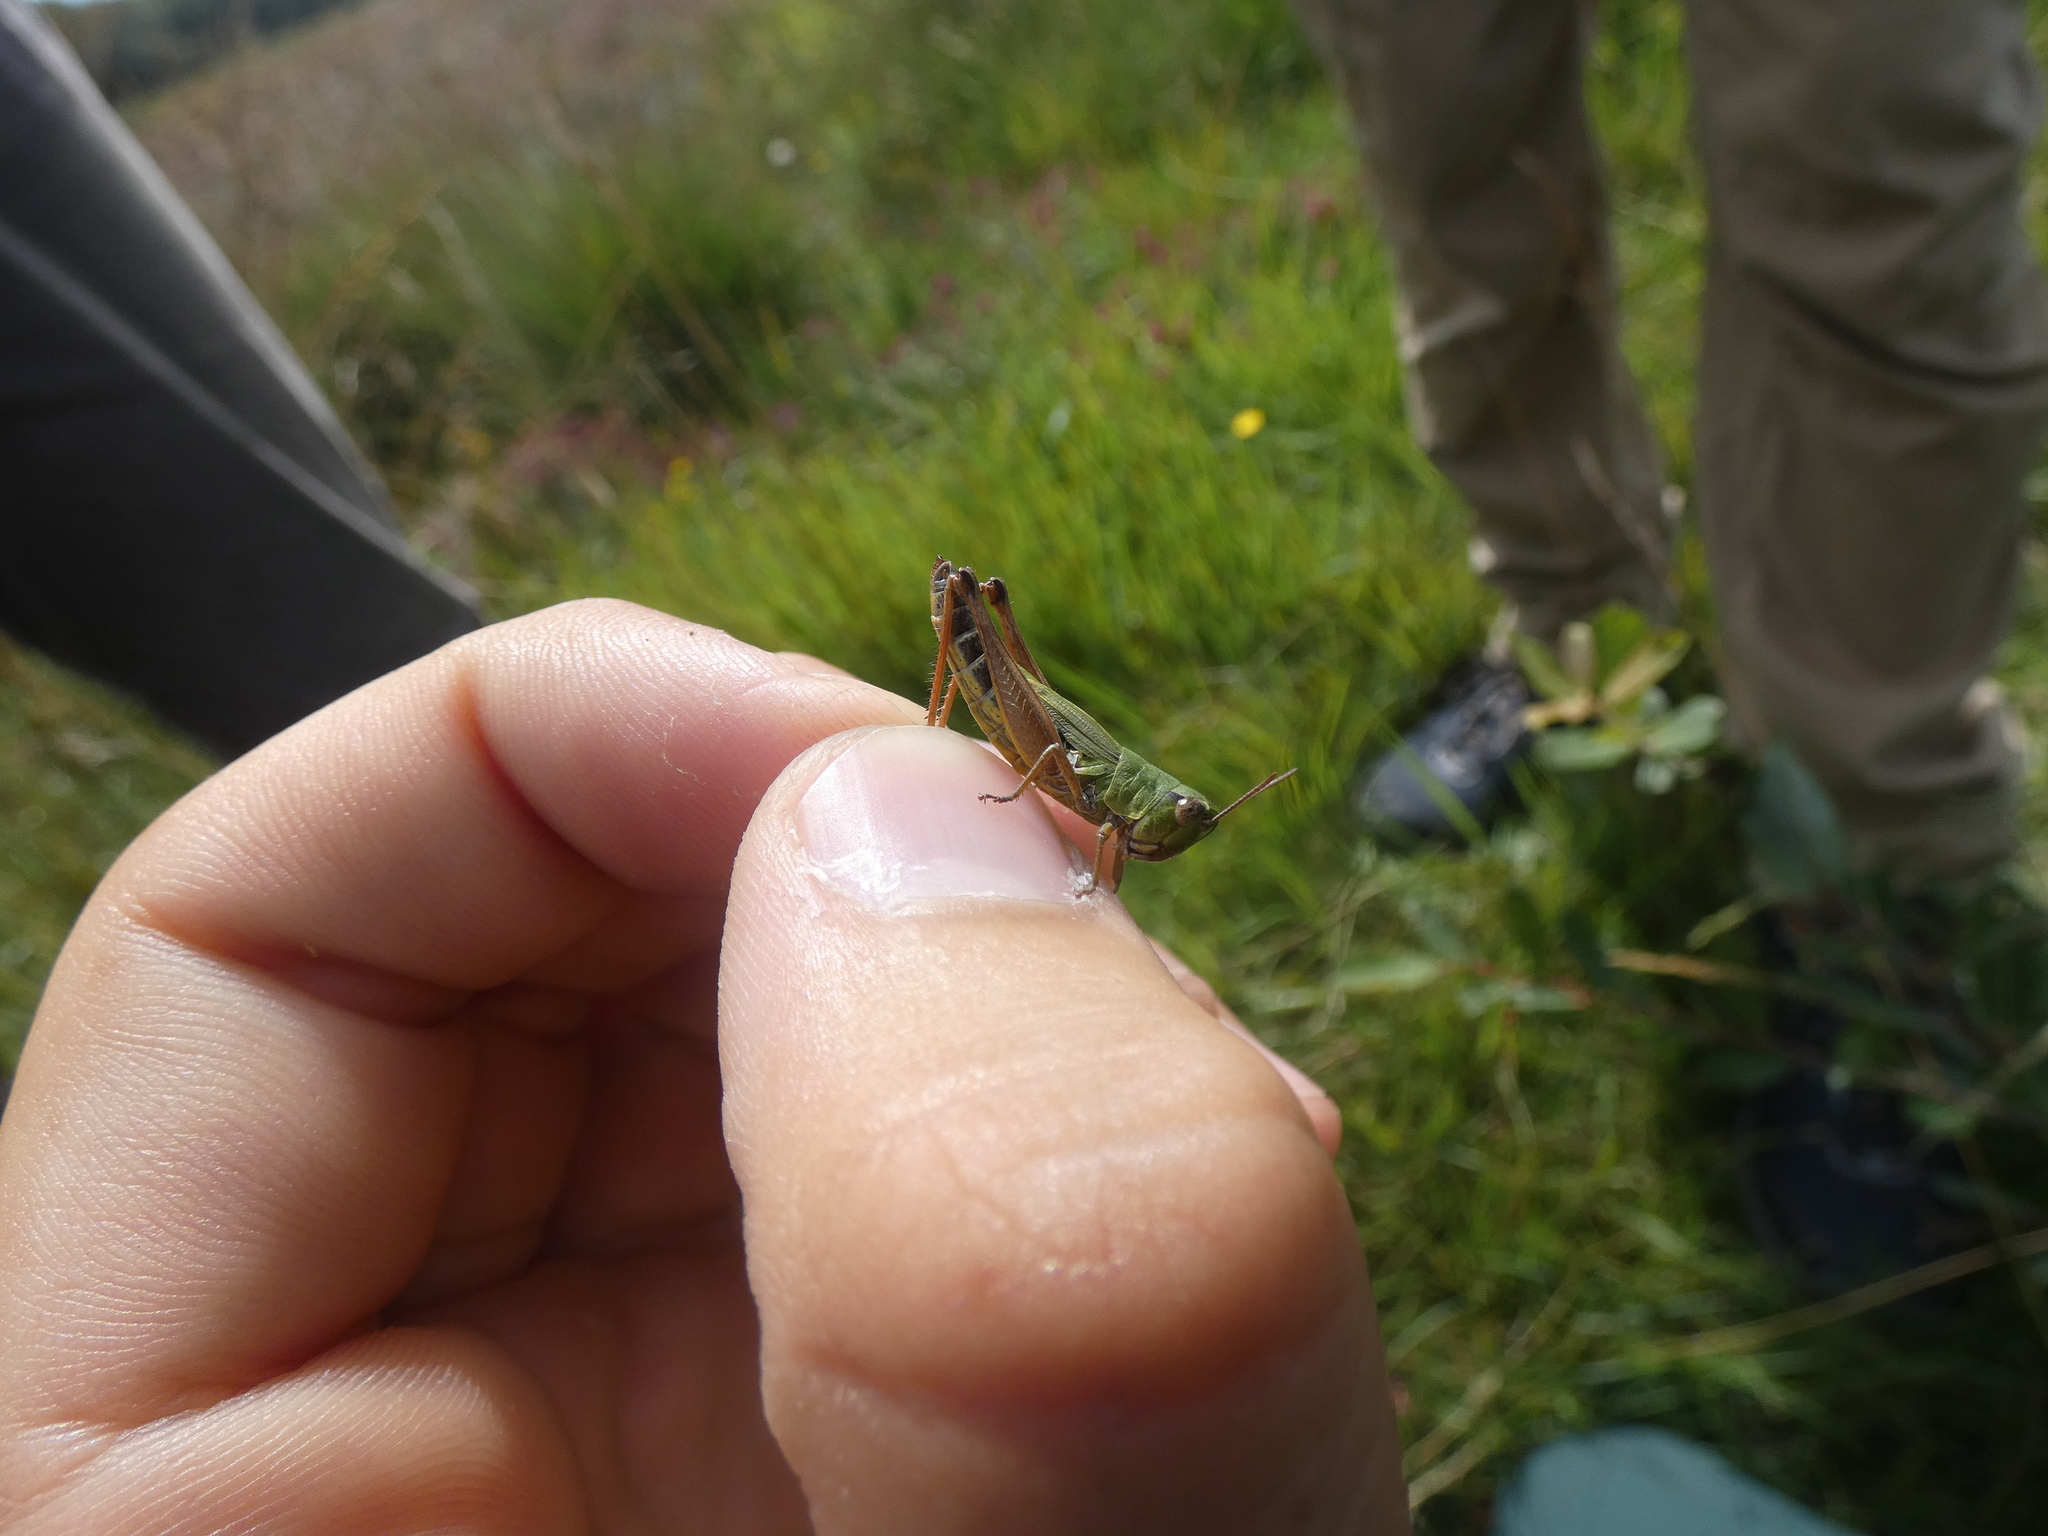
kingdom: Animalia
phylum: Arthropoda
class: Insecta
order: Orthoptera
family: Acrididae
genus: Pseudochorthippus
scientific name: Pseudochorthippus parallelus
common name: Meadow grasshopper
